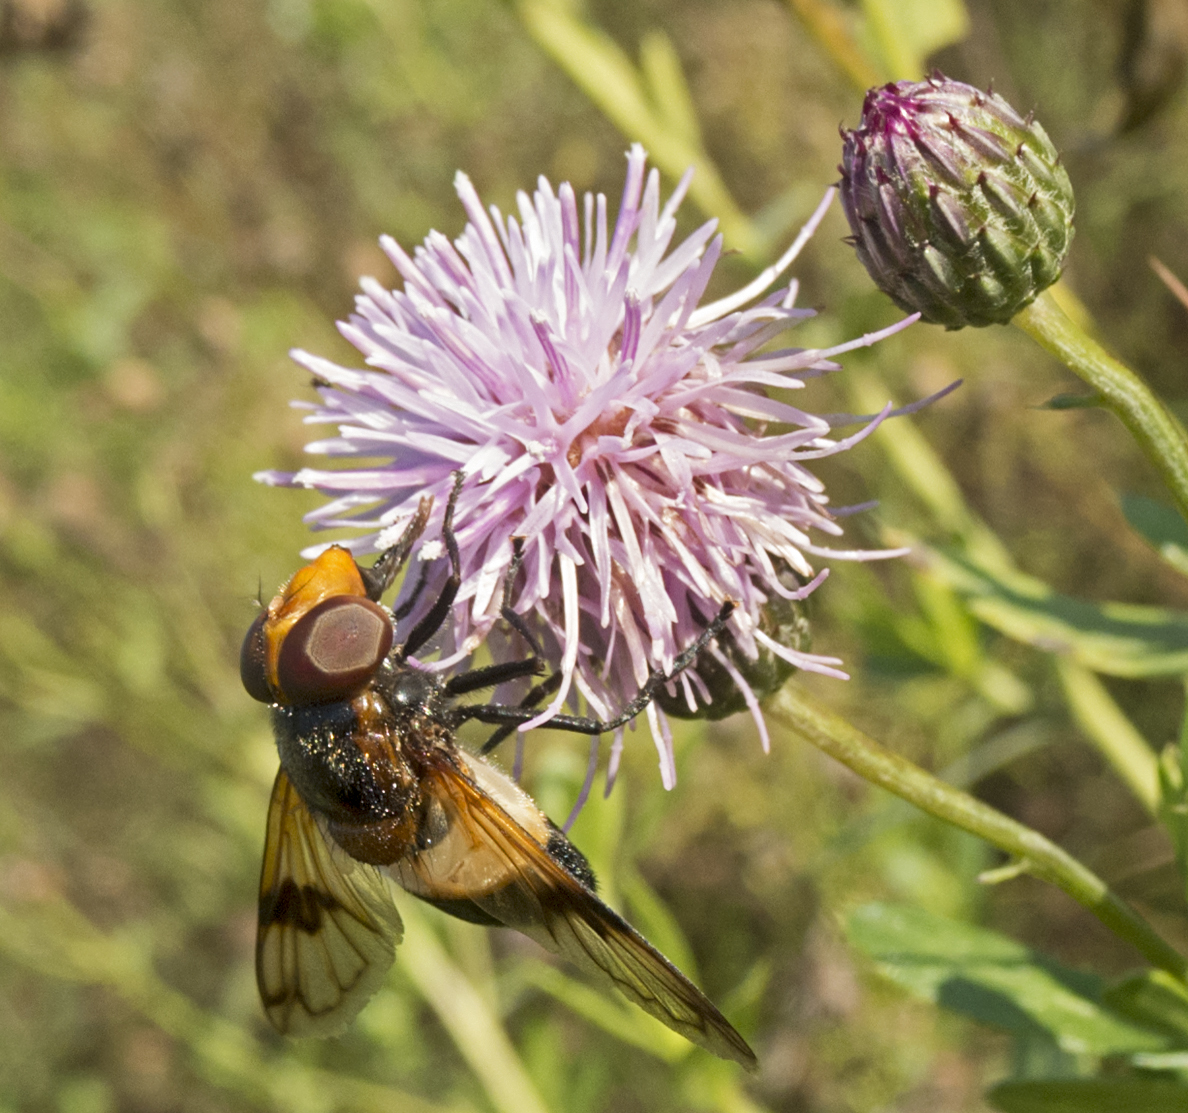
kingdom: Animalia
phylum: Arthropoda
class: Insecta
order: Diptera
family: Syrphidae
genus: Volucella
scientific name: Volucella pellucens
